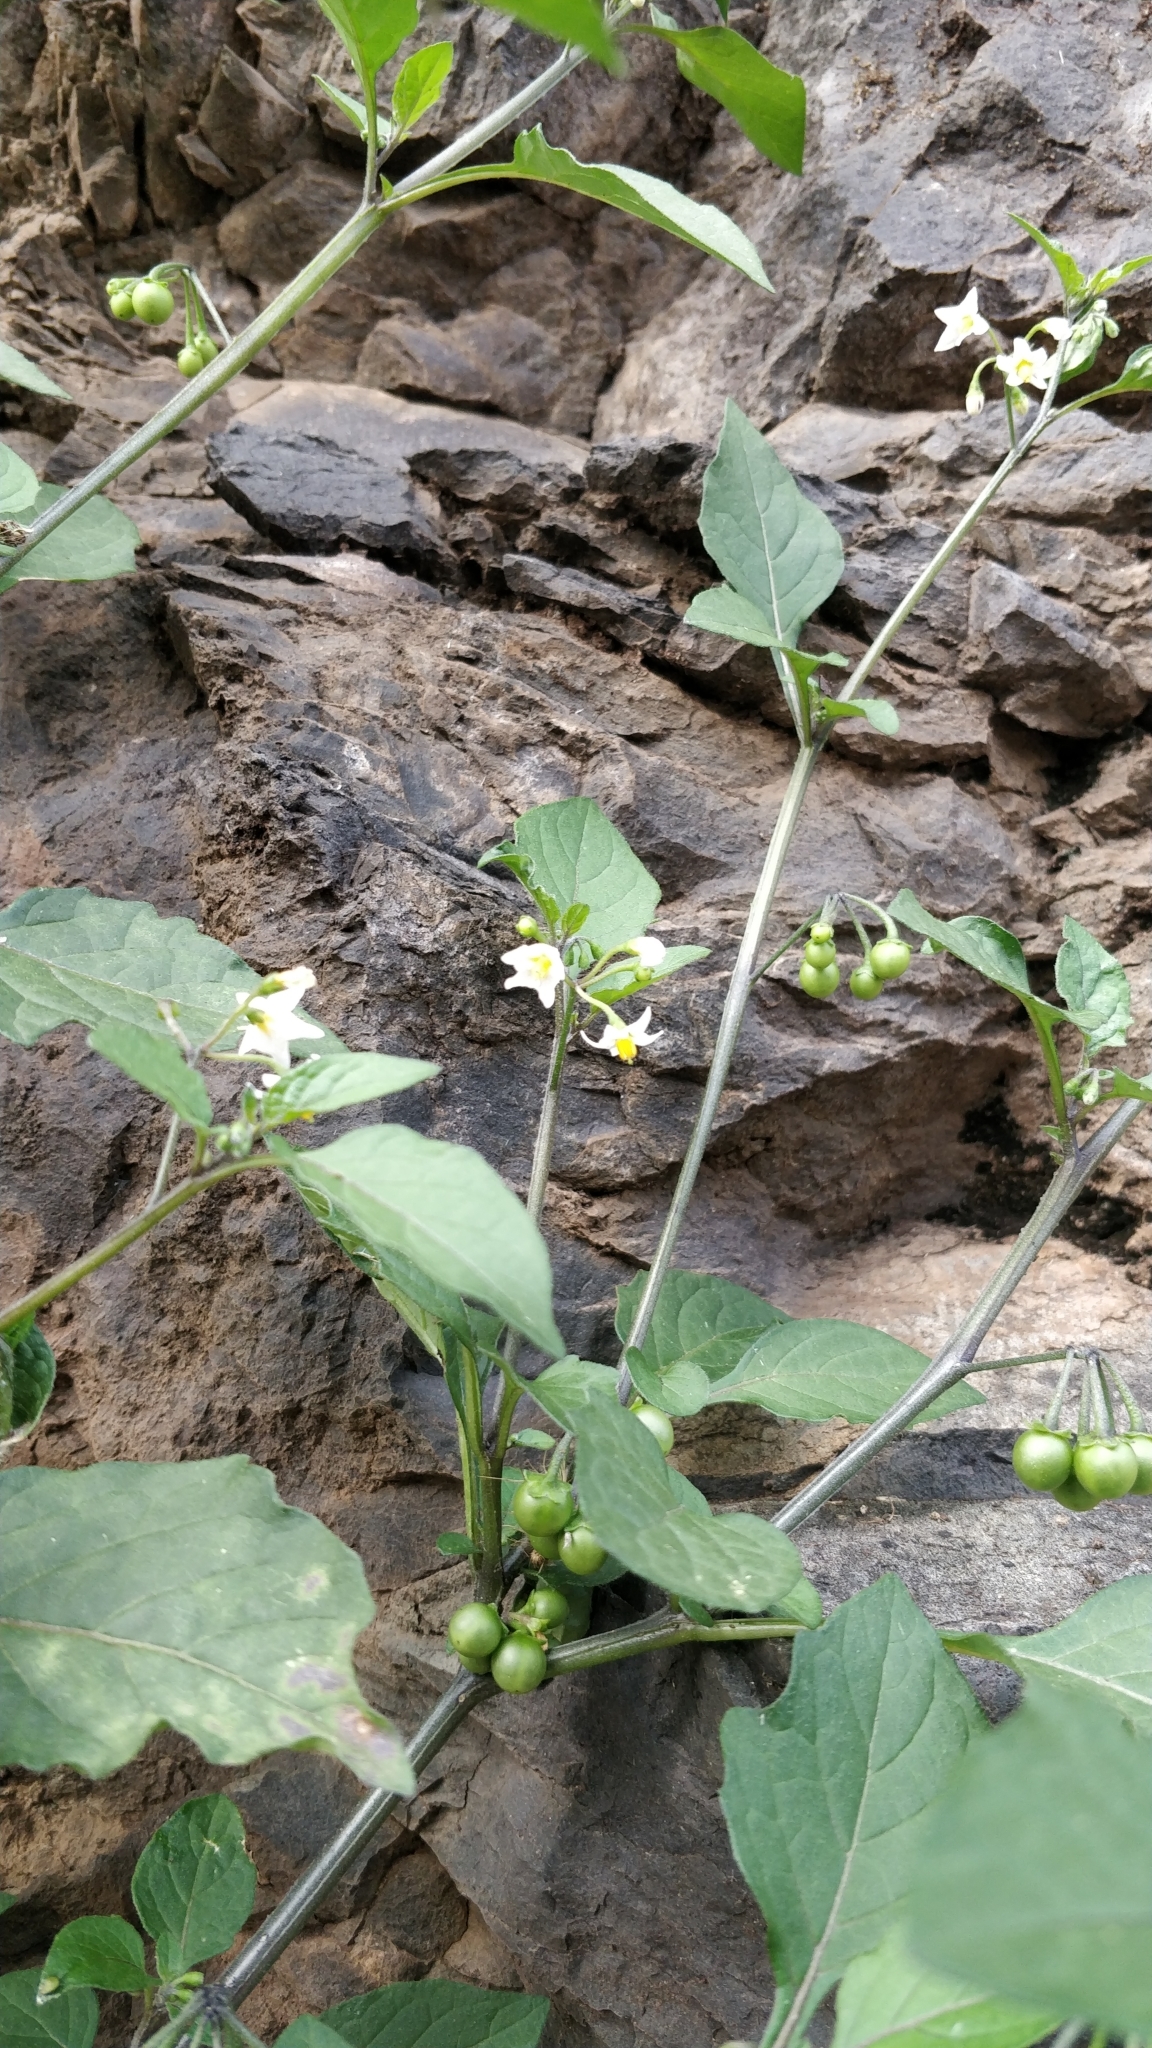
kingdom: Plantae
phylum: Tracheophyta
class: Magnoliopsida
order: Solanales
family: Solanaceae
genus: Solanum
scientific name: Solanum nigrum
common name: Black nightshade
